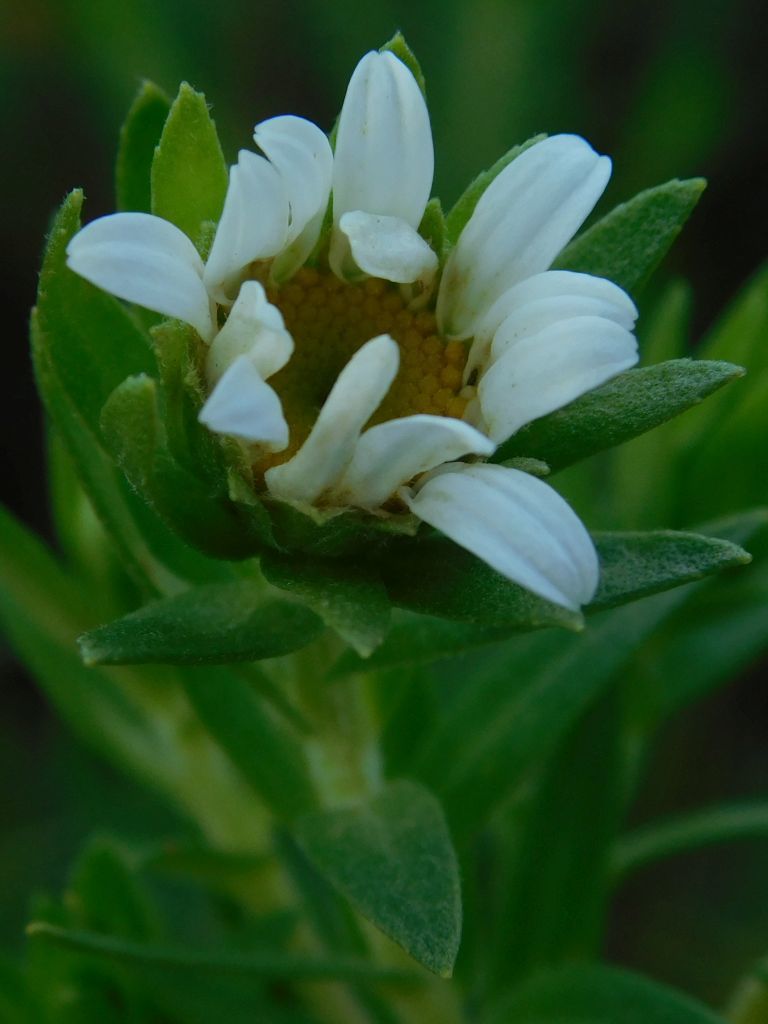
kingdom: Plantae
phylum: Tracheophyta
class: Magnoliopsida
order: Asterales
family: Asteraceae
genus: Osmitopsis
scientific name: Osmitopsis asteriscoides
